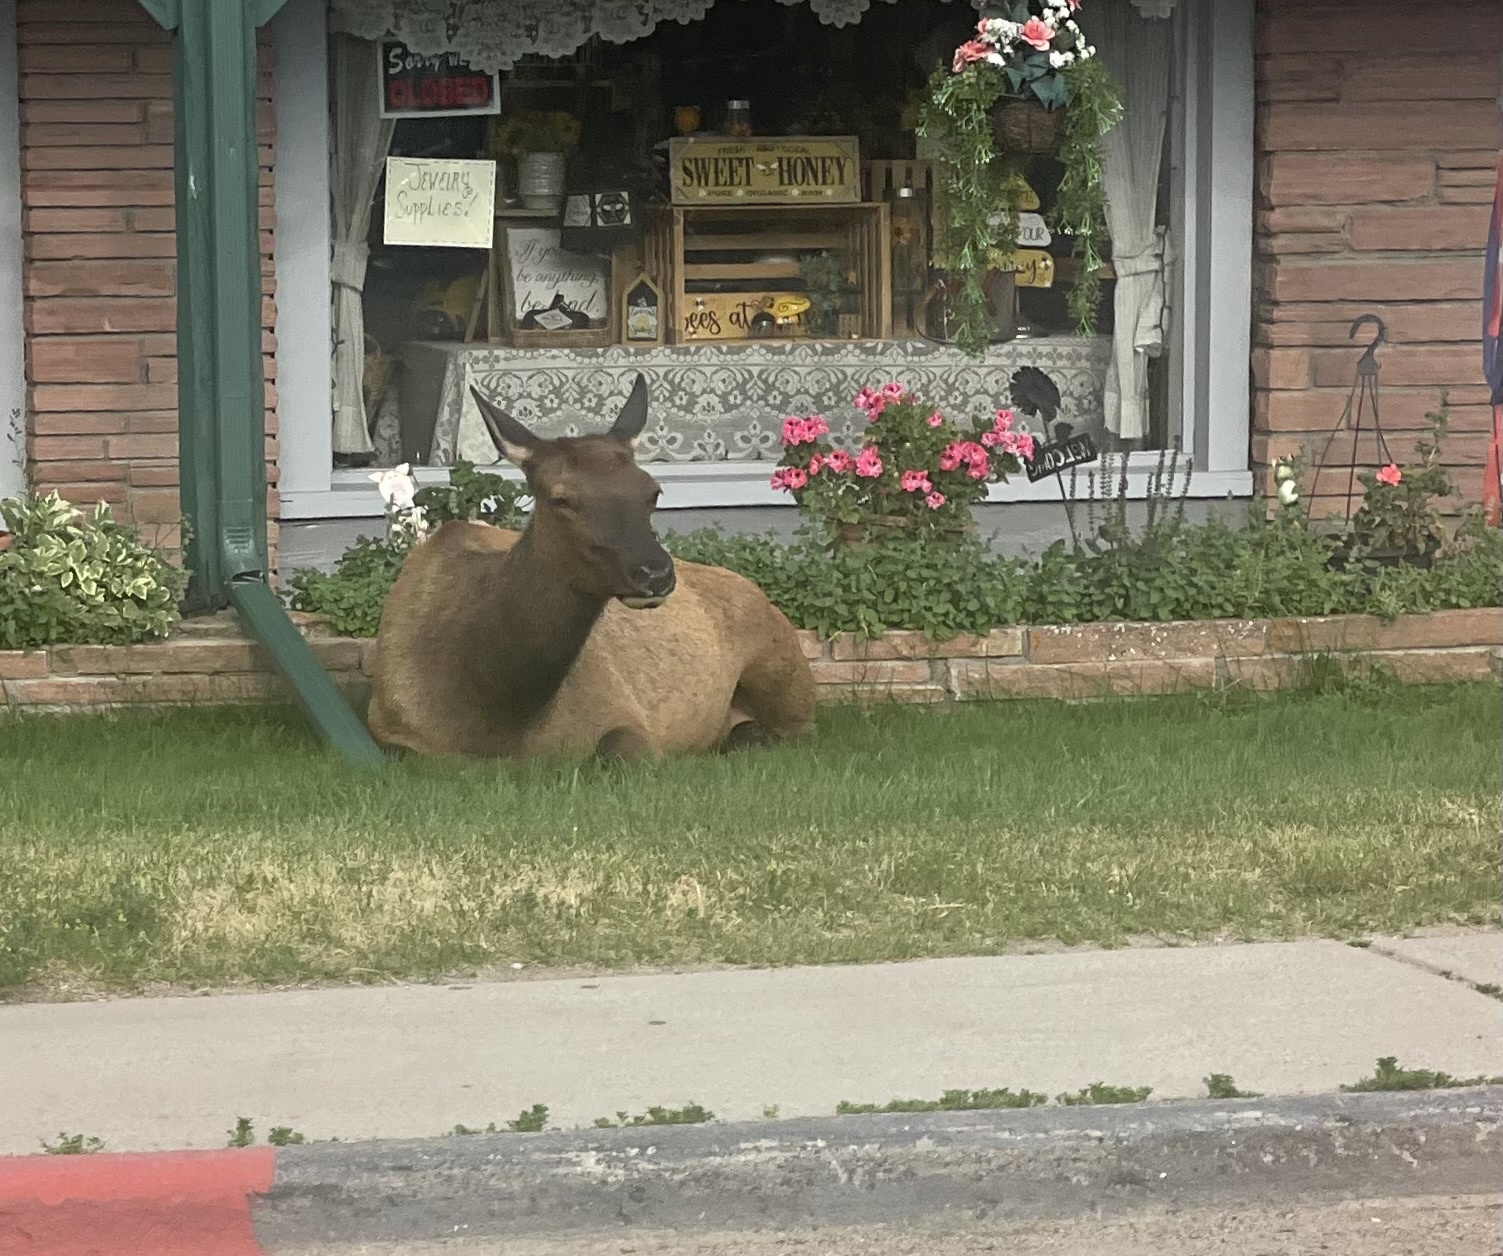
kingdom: Animalia
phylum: Chordata
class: Mammalia
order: Artiodactyla
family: Cervidae
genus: Cervus
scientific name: Cervus elaphus
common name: Red deer
